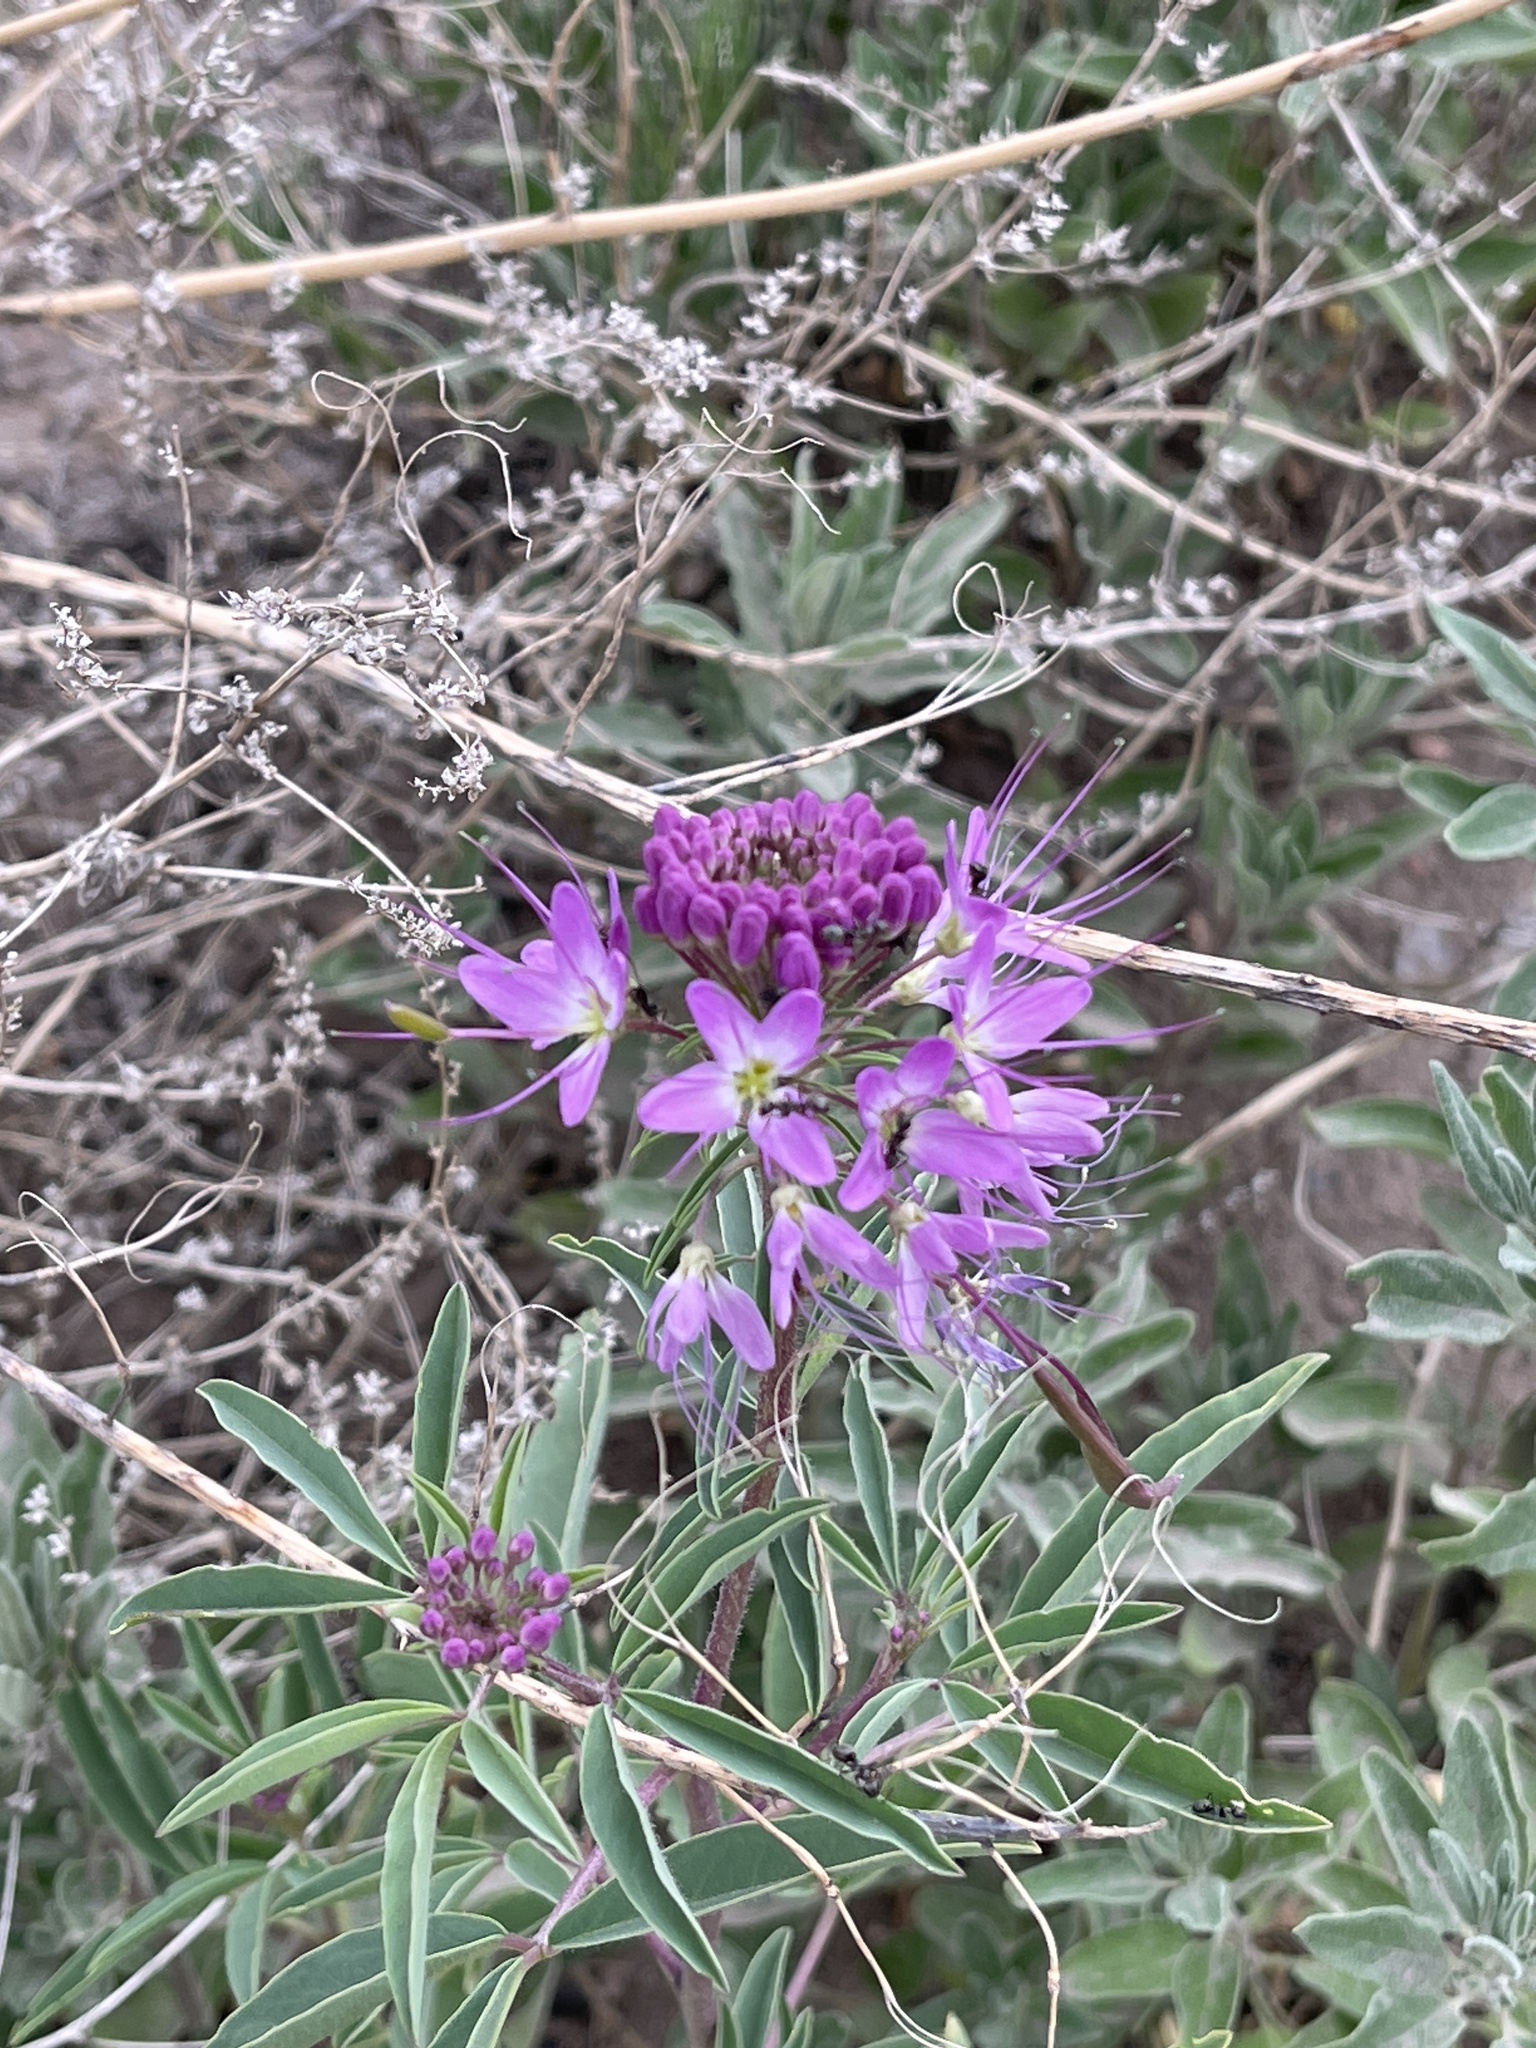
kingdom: Plantae
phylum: Tracheophyta
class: Magnoliopsida
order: Brassicales
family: Cleomaceae
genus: Cleomella
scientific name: Cleomella serrulata
